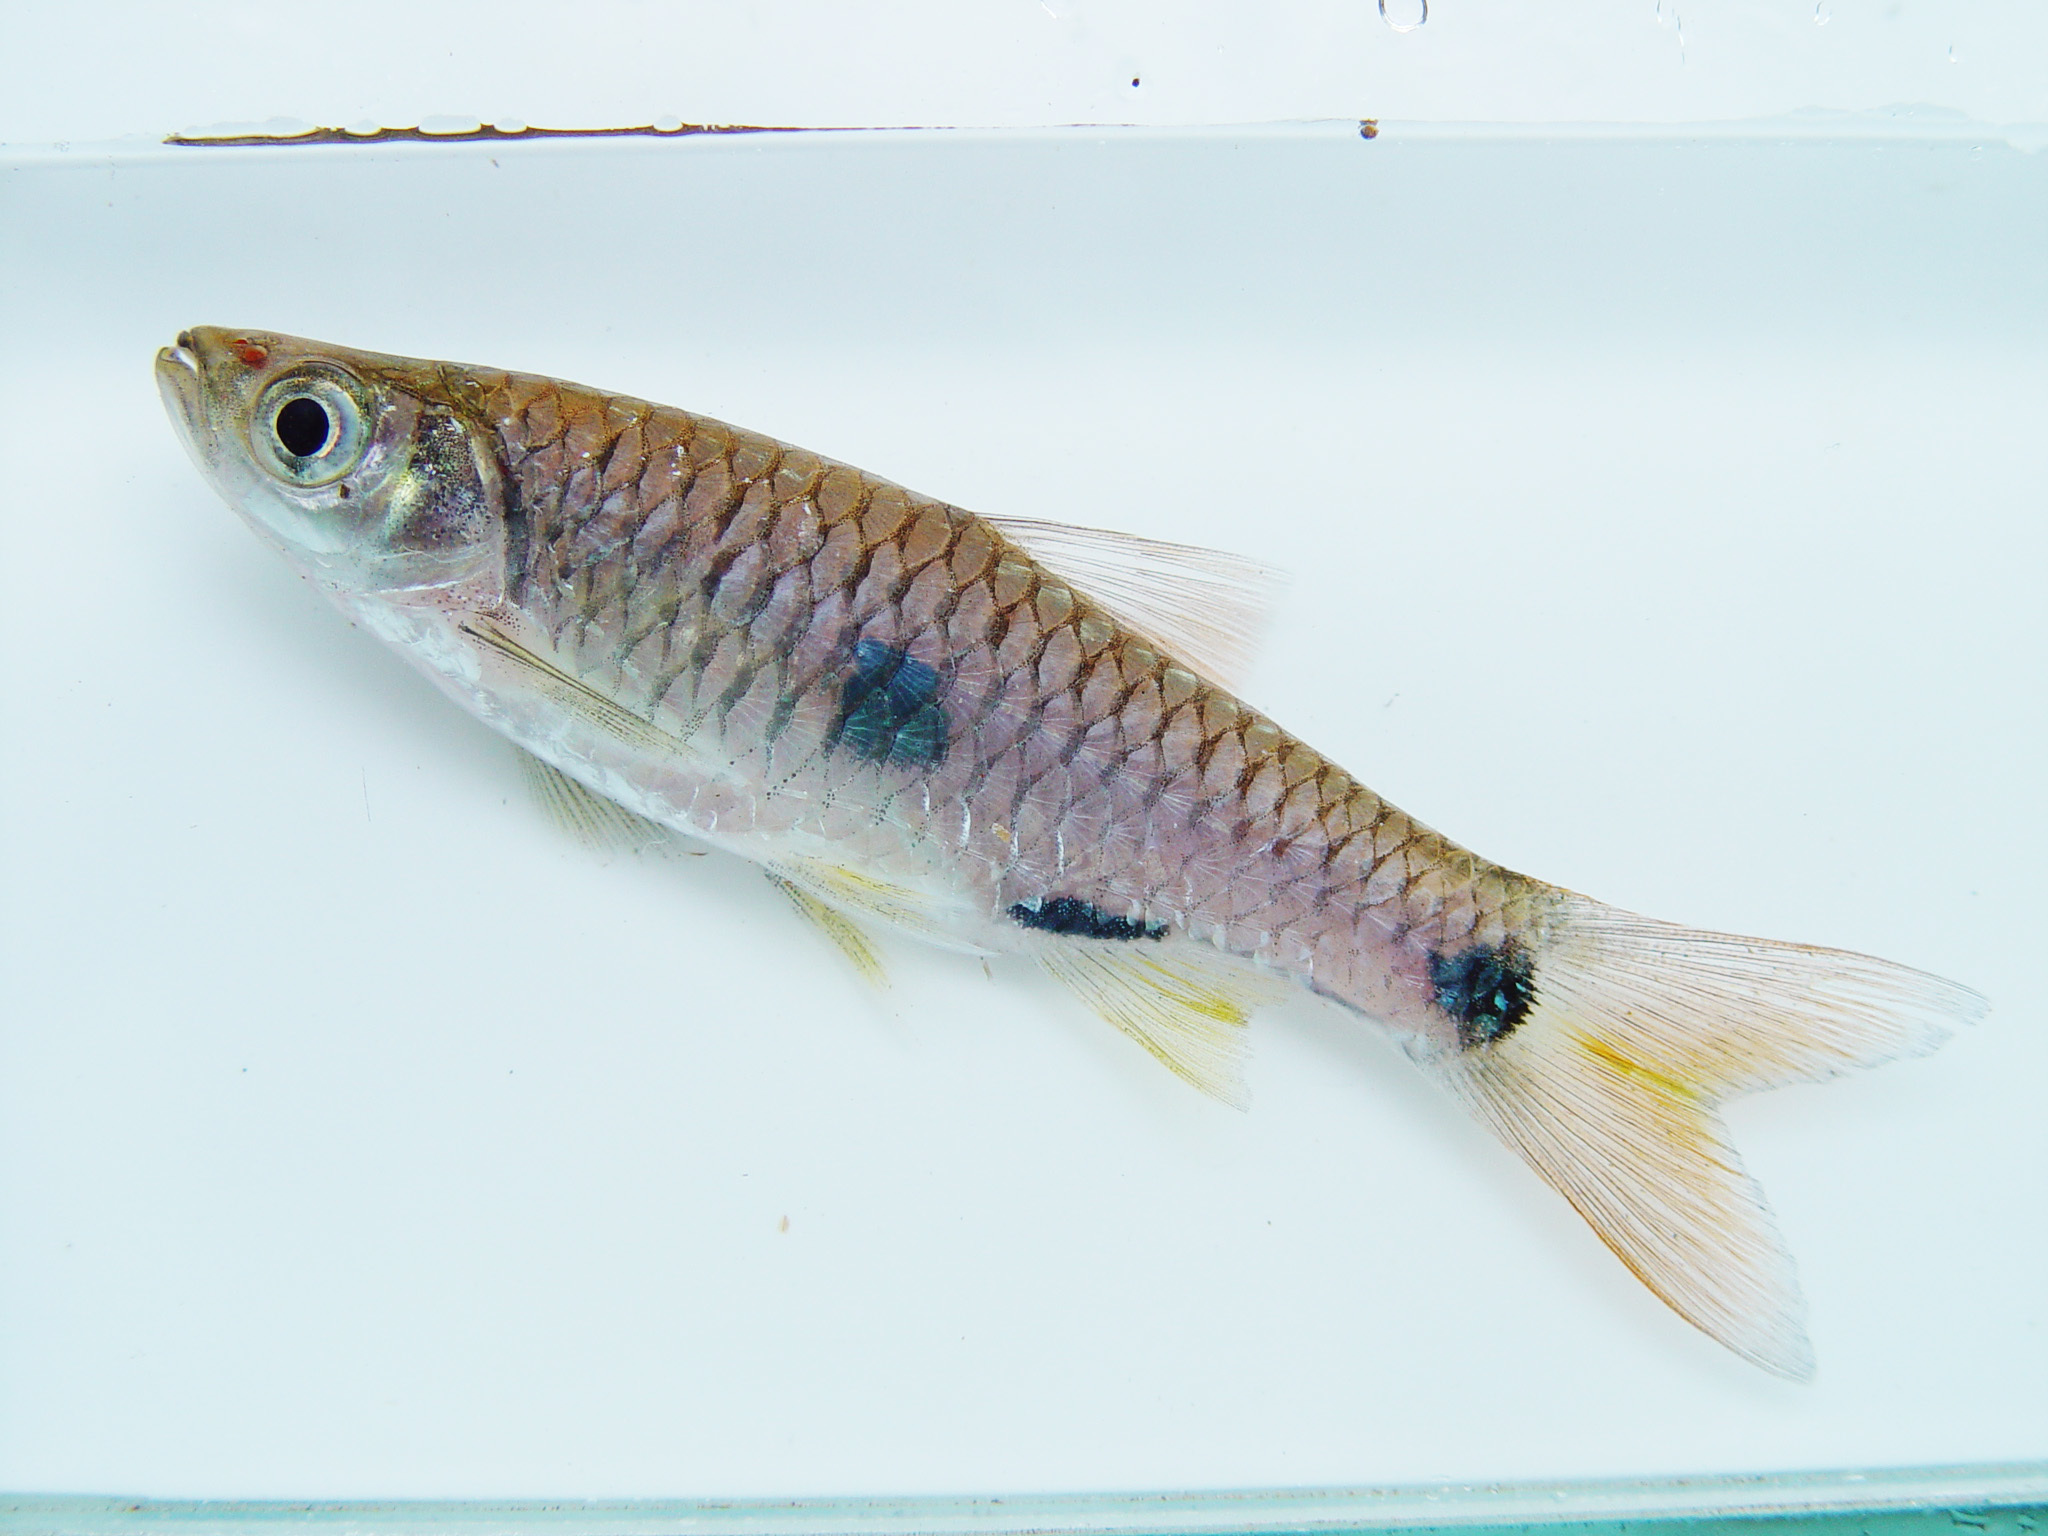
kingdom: Animalia
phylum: Chordata
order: Cypriniformes
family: Cyprinidae
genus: Rasbora
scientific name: Rasbora elegans
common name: Elegant rasbora
